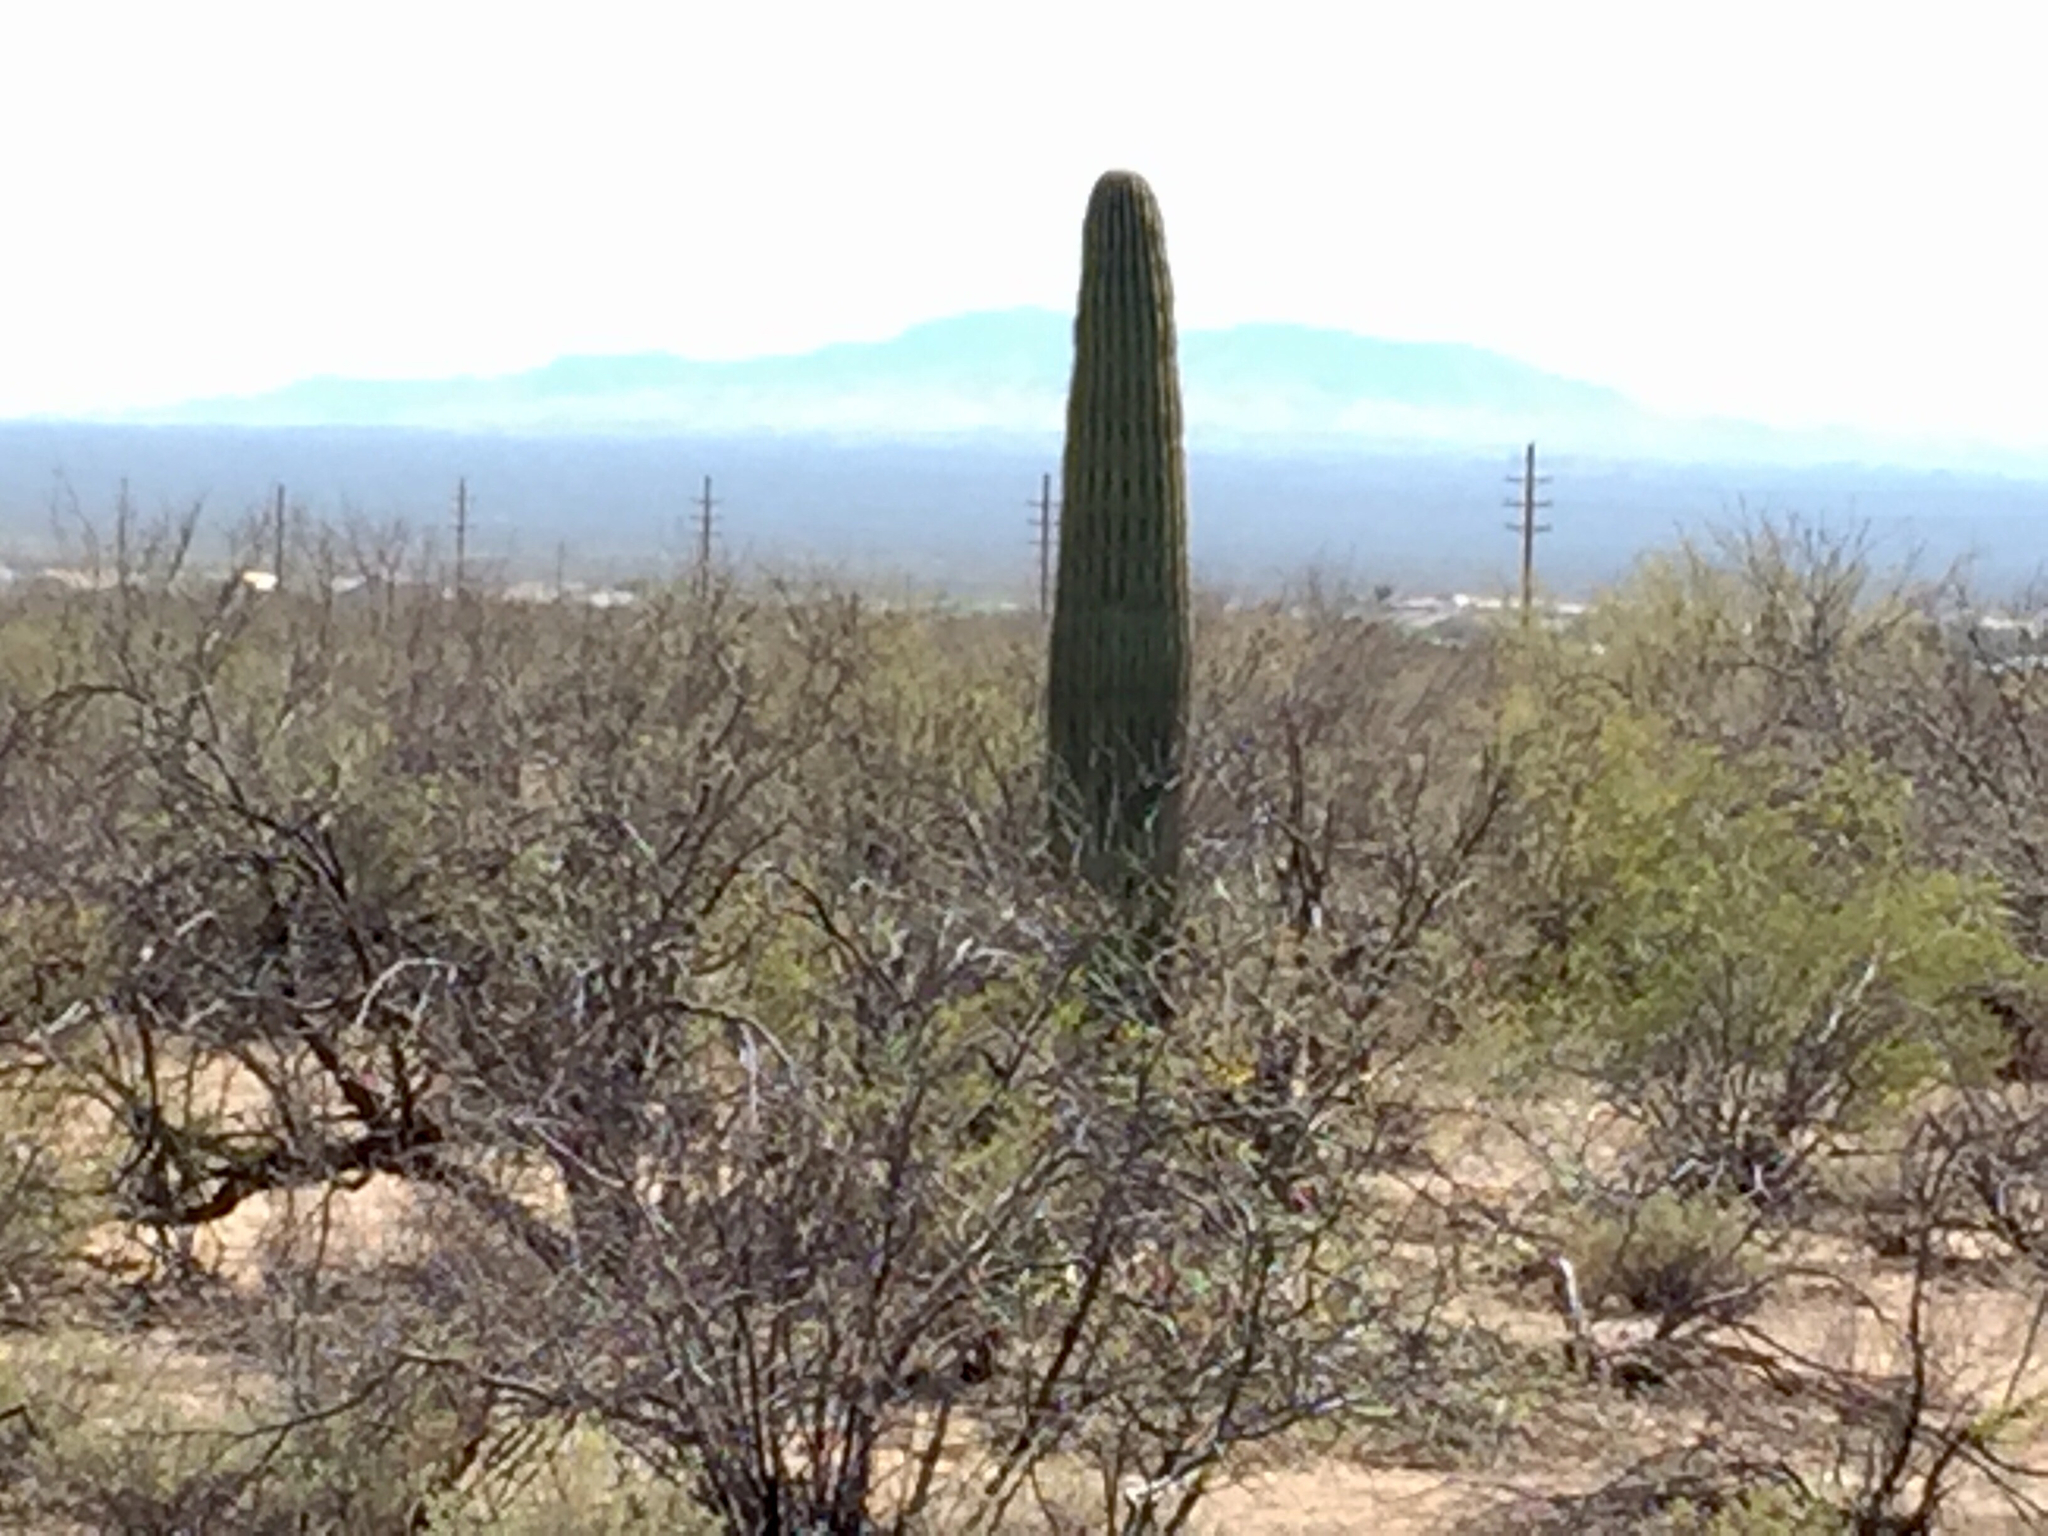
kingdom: Plantae
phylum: Tracheophyta
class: Magnoliopsida
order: Caryophyllales
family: Cactaceae
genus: Carnegiea
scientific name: Carnegiea gigantea
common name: Saguaro
